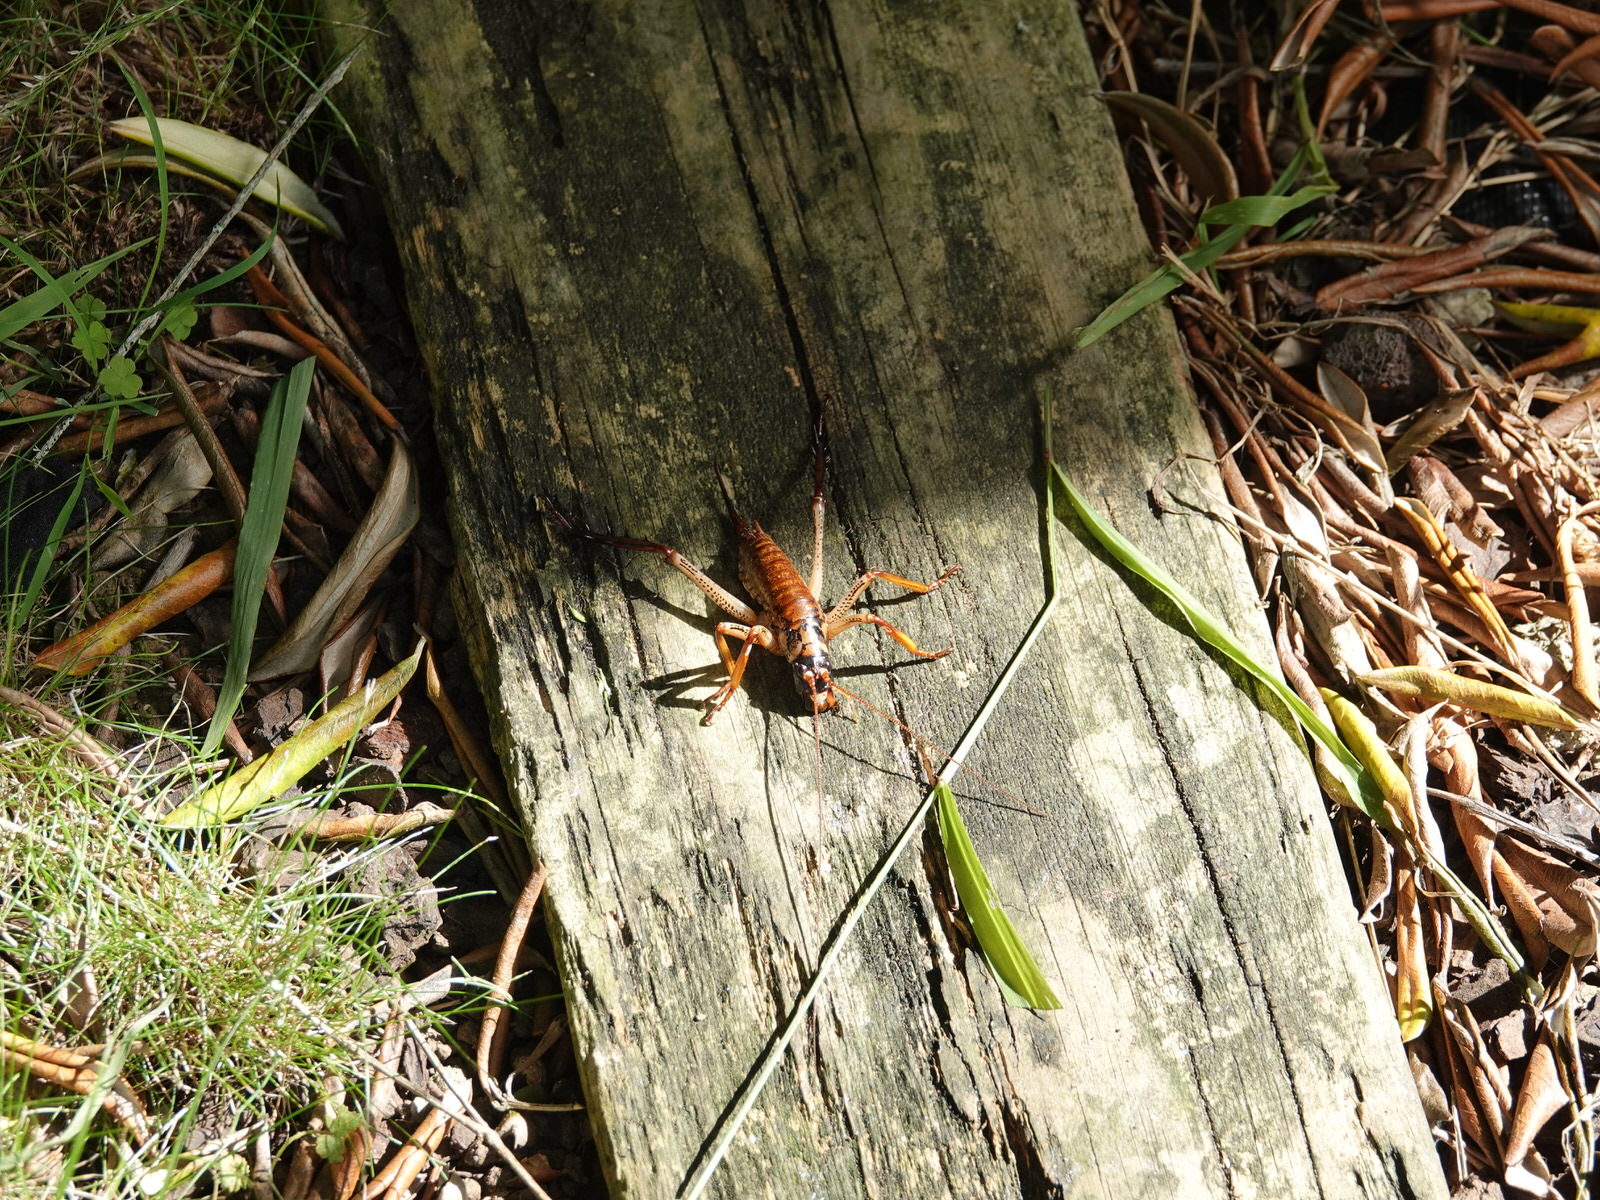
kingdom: Animalia
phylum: Arthropoda
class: Insecta
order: Orthoptera
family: Anostostomatidae
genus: Hemideina
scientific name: Hemideina thoracica
